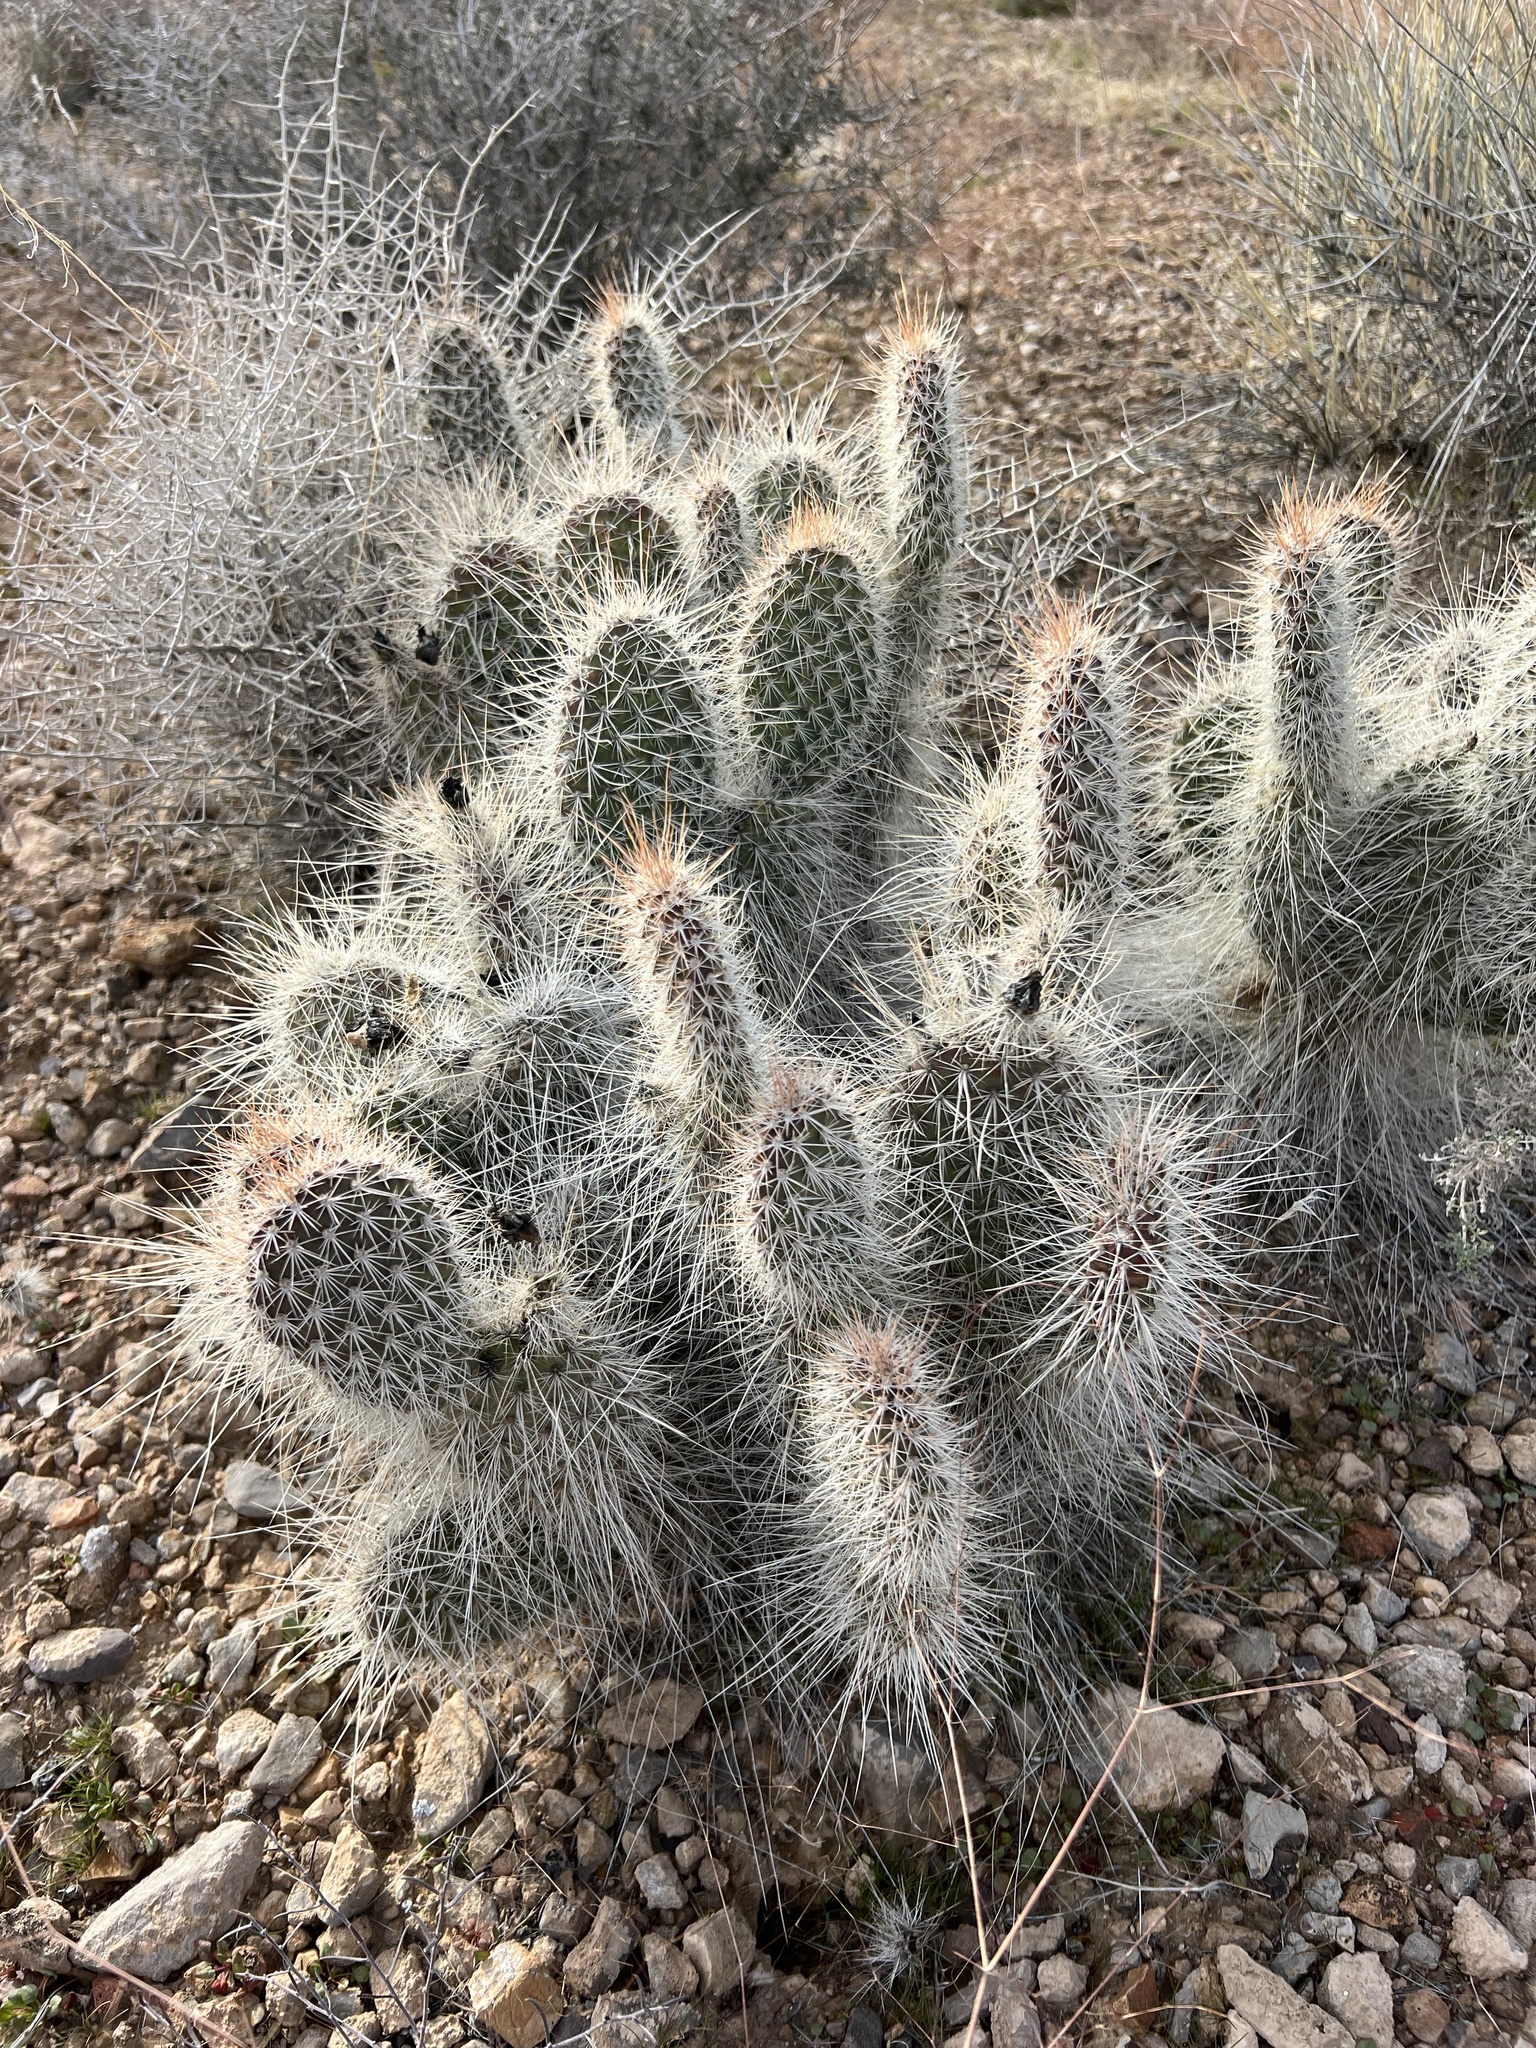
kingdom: Plantae
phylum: Tracheophyta
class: Magnoliopsida
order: Caryophyllales
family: Cactaceae
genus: Opuntia
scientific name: Opuntia polyacantha
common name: Plains prickly-pear
